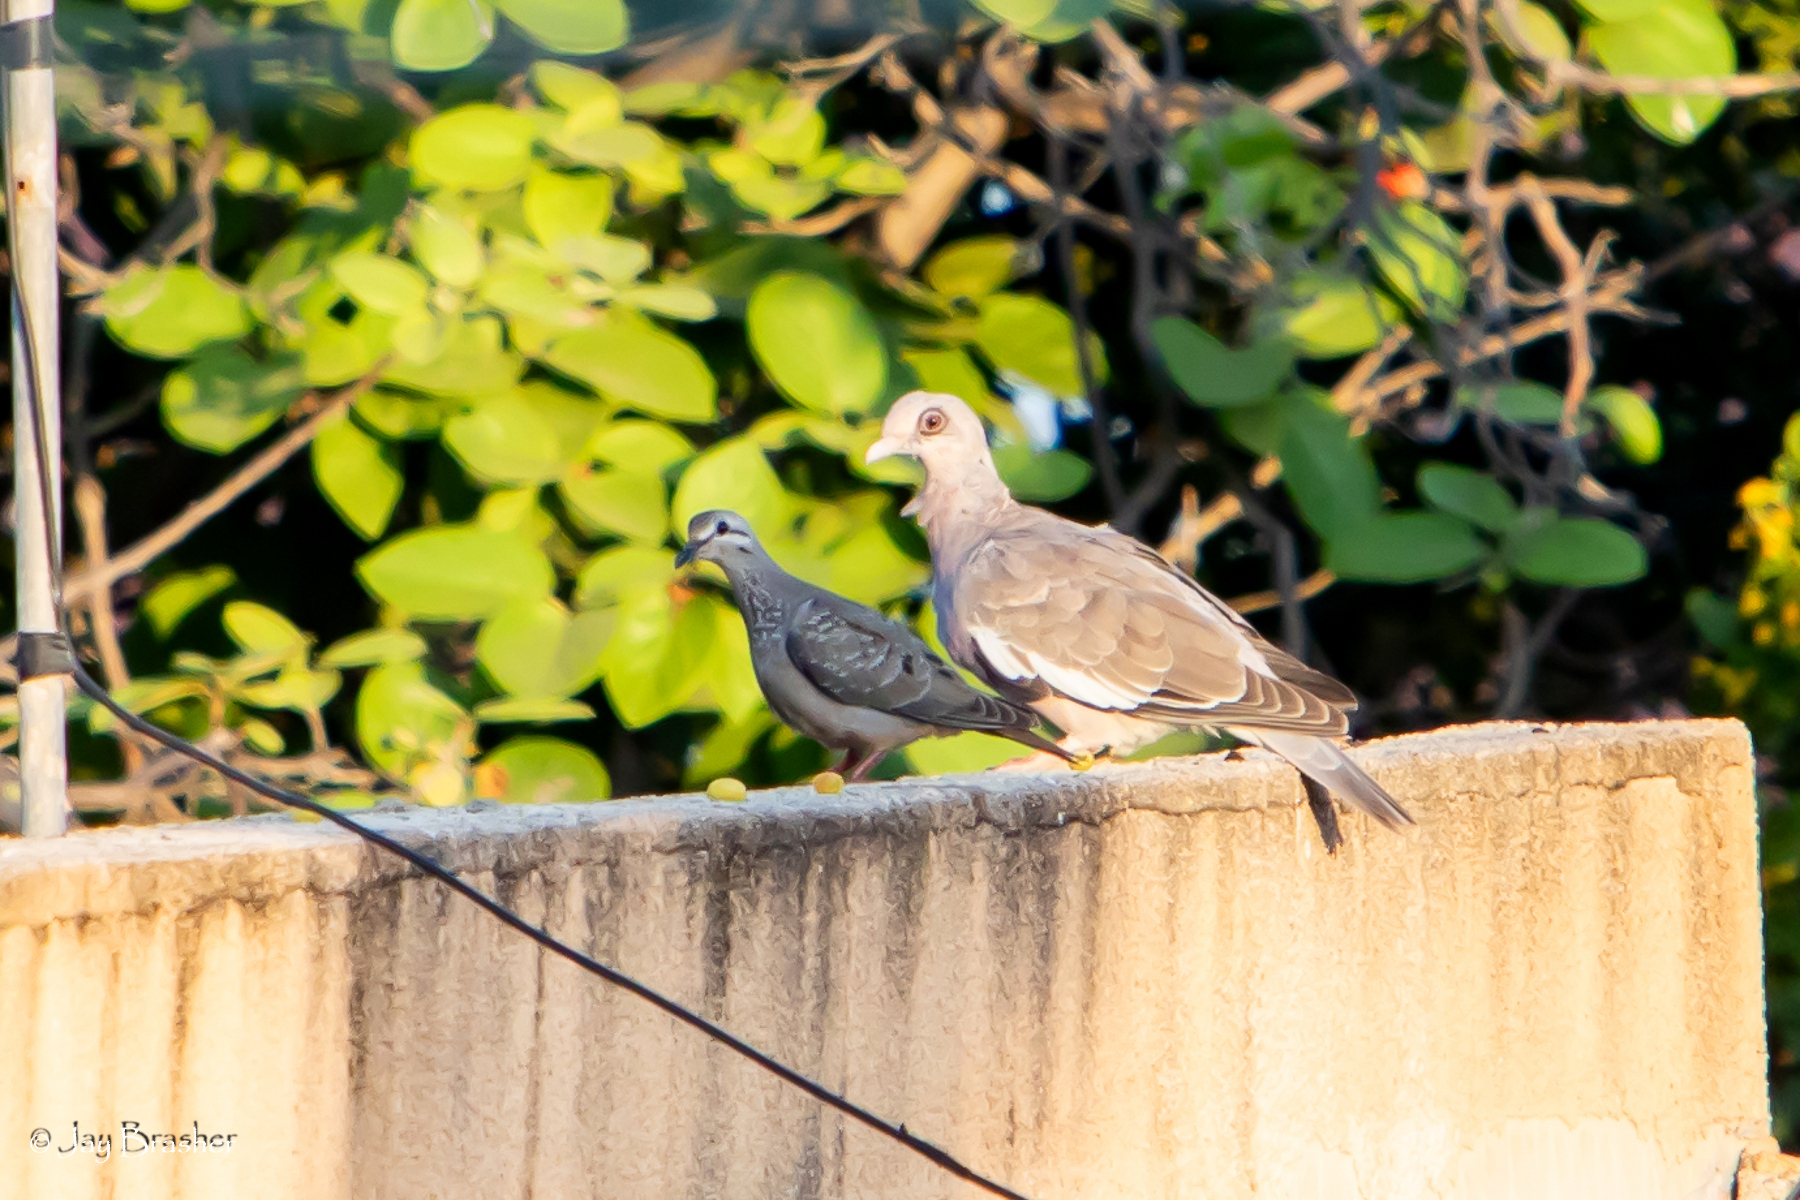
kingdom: Animalia
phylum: Chordata
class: Aves
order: Columbiformes
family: Columbidae
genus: Patagioenas
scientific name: Patagioenas corensis
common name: Bare-eyed pigeon
